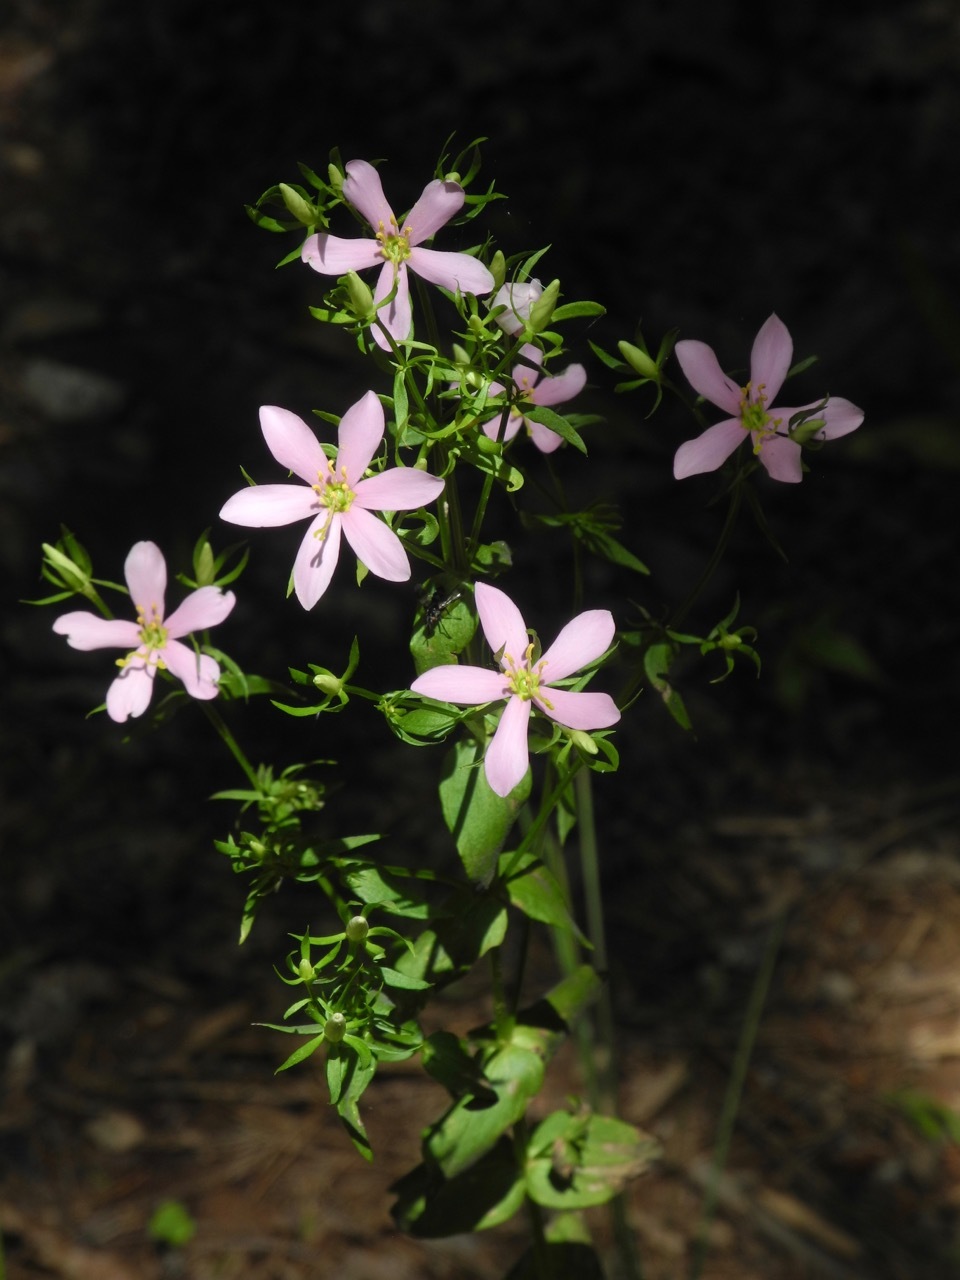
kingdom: Plantae
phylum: Tracheophyta
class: Magnoliopsida
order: Gentianales
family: Gentianaceae
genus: Sabatia
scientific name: Sabatia angularis
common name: Rose-pink
